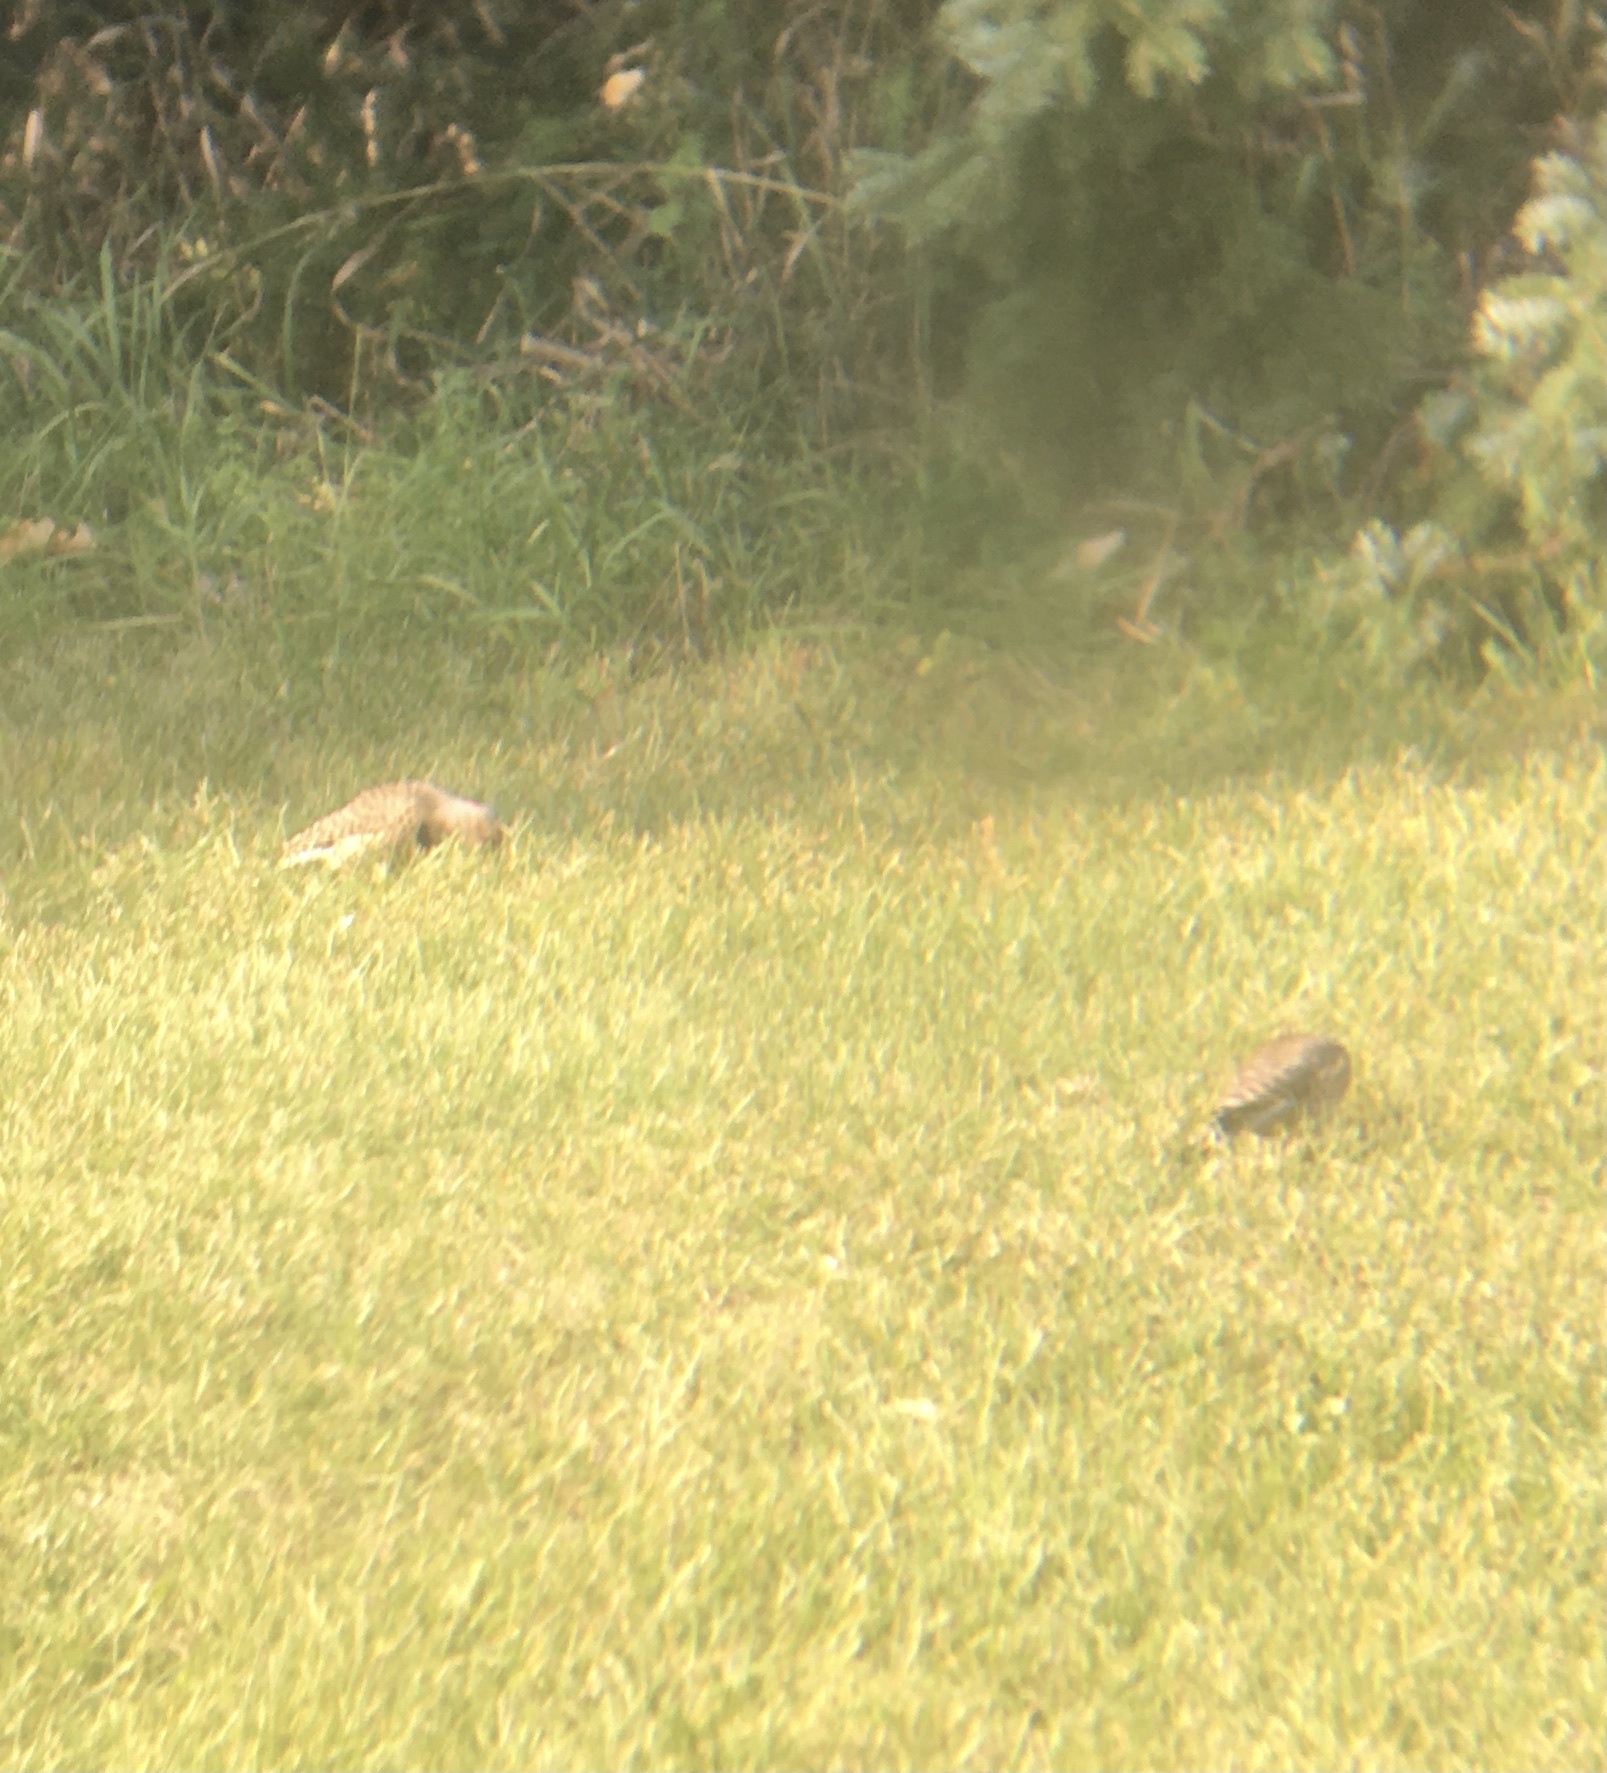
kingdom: Animalia
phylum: Chordata
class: Aves
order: Piciformes
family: Picidae
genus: Colaptes
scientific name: Colaptes auratus
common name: Northern flicker
